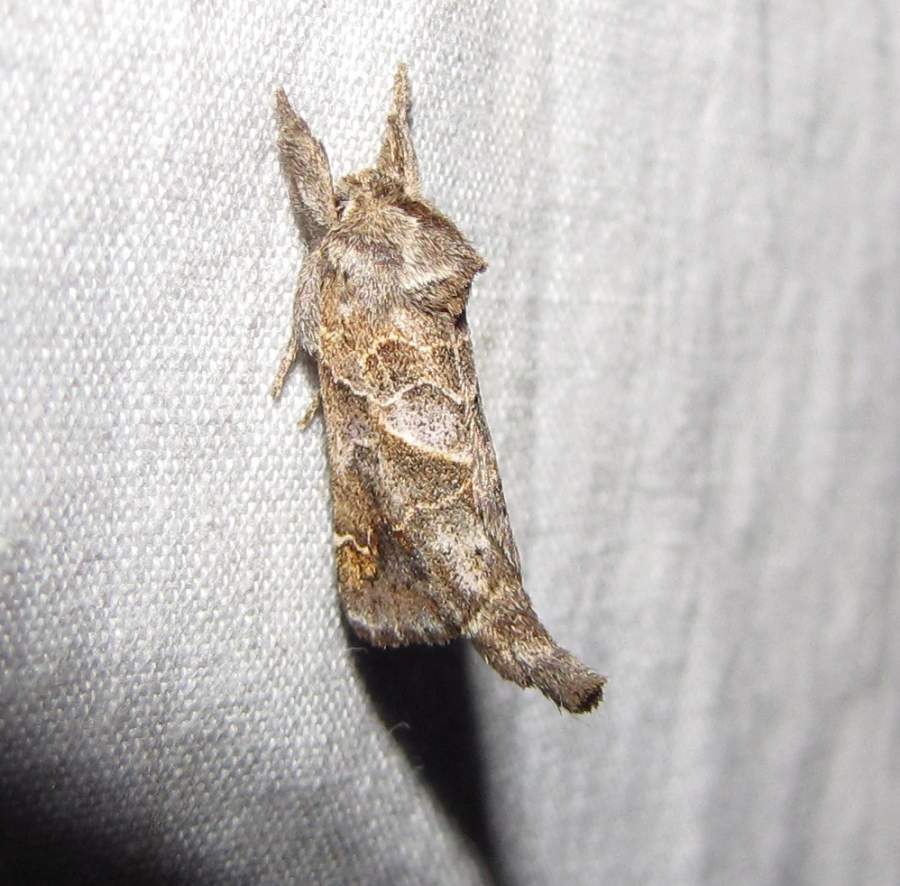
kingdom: Animalia
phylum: Arthropoda
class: Insecta
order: Lepidoptera
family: Notodontidae
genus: Clostera
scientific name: Clostera strigosa
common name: Striped chocolate-tip moth
